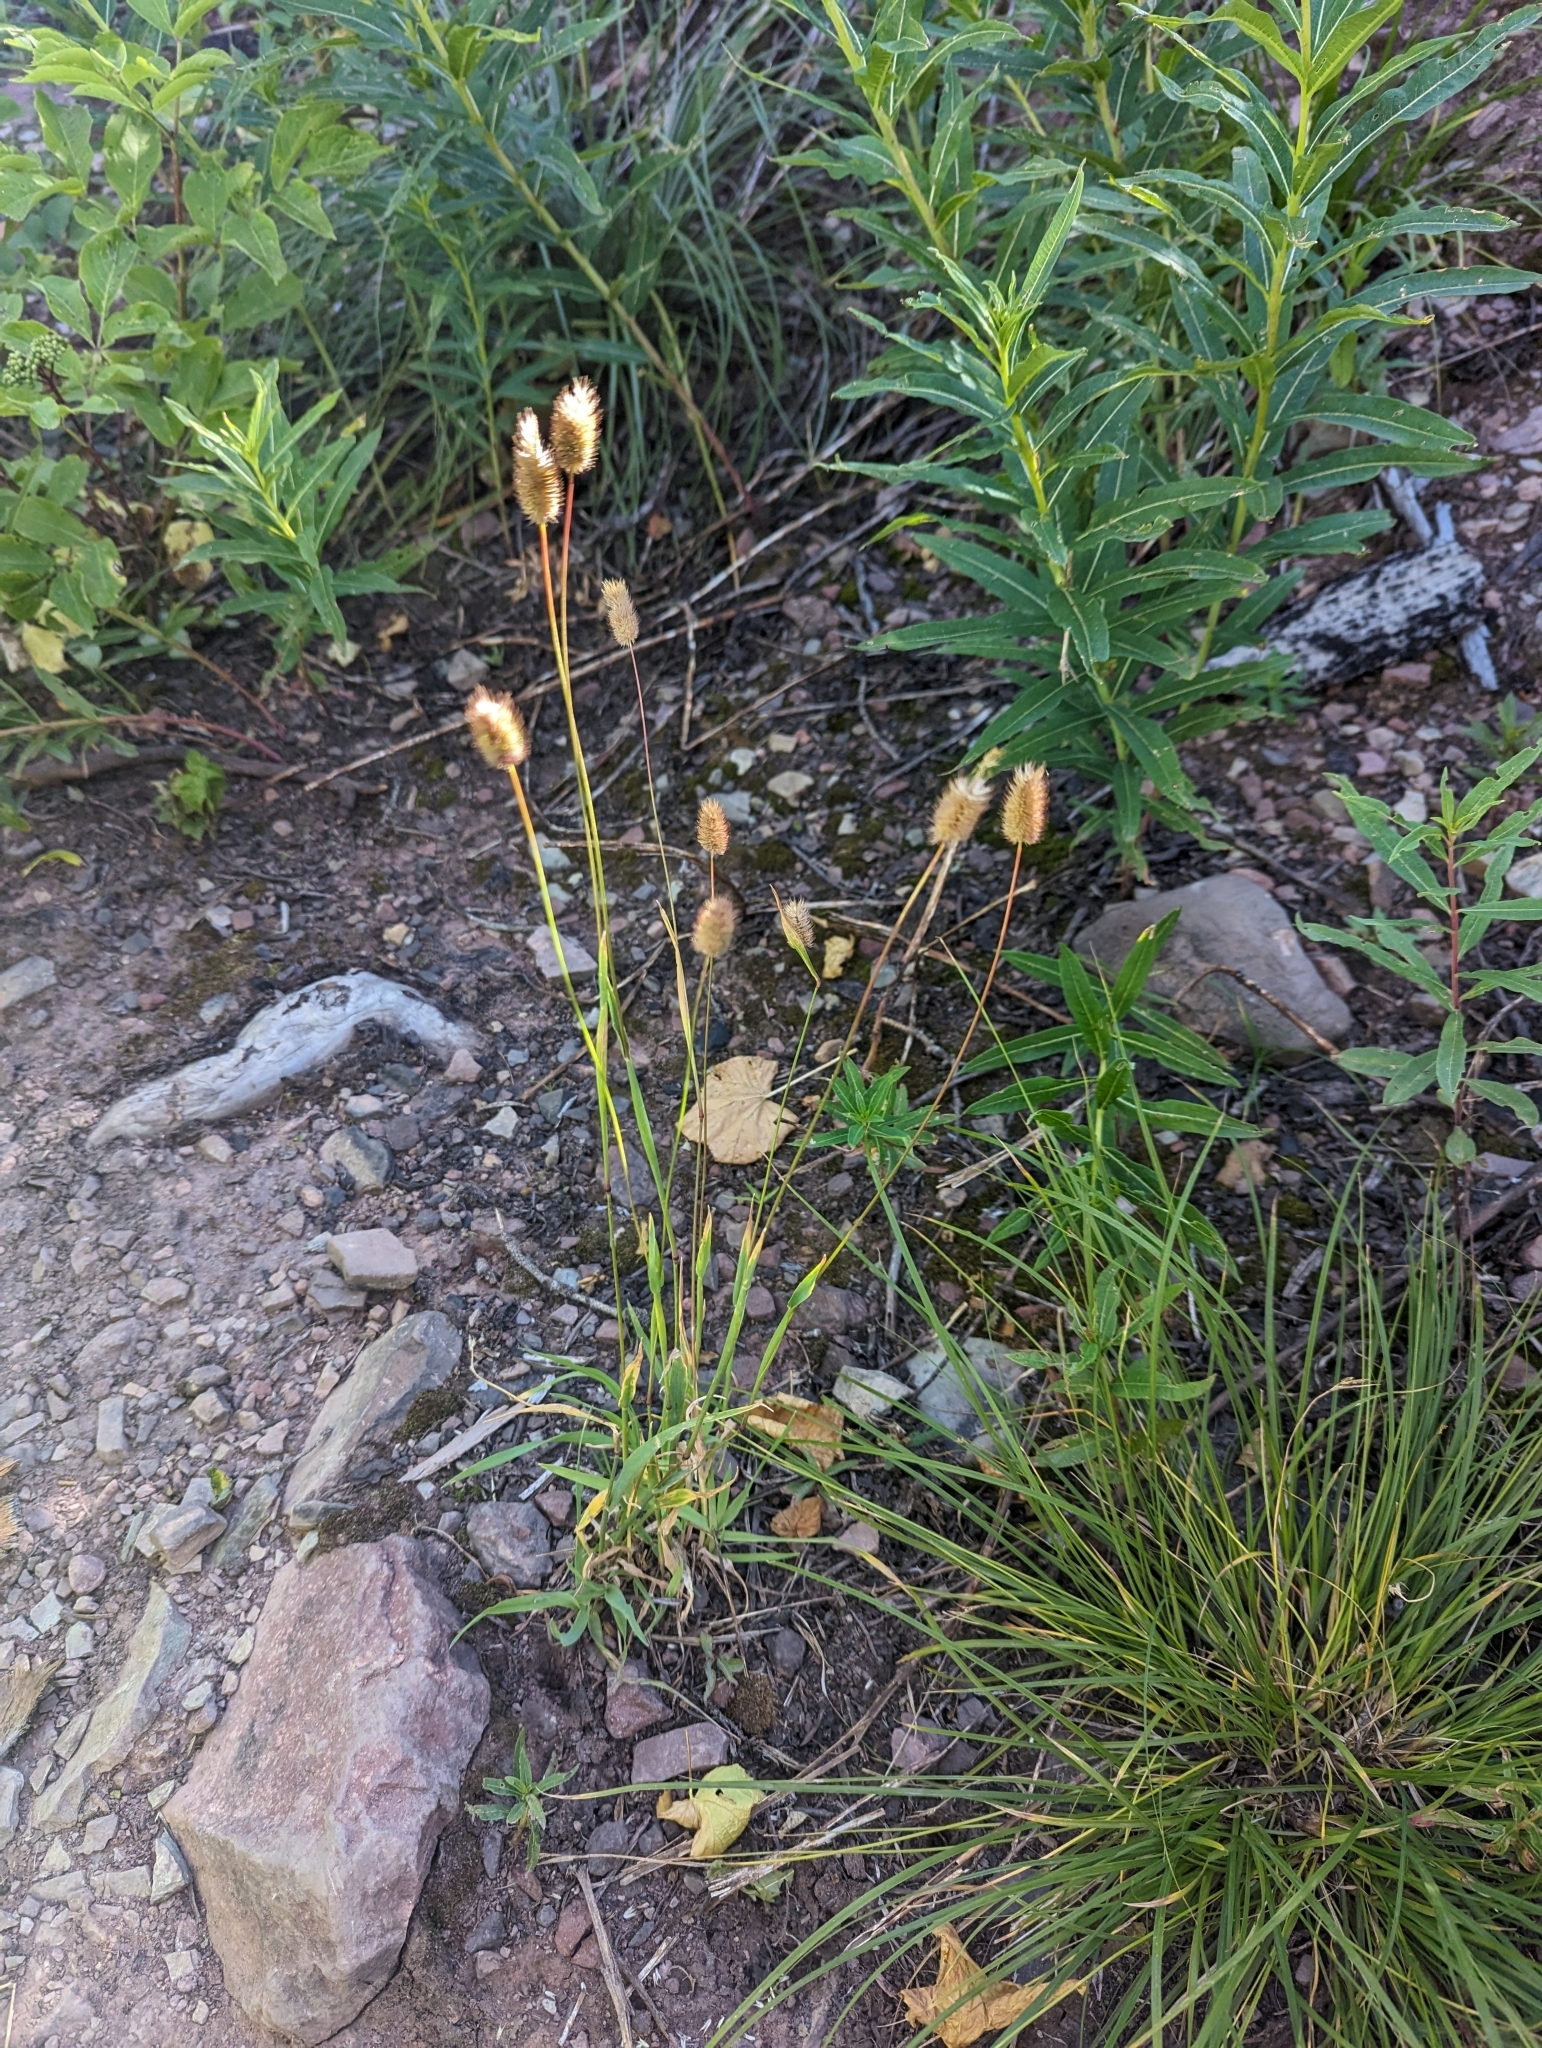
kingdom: Plantae
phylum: Tracheophyta
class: Liliopsida
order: Poales
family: Poaceae
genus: Phleum
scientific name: Phleum alpinum
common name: Alpine cat's-tail
